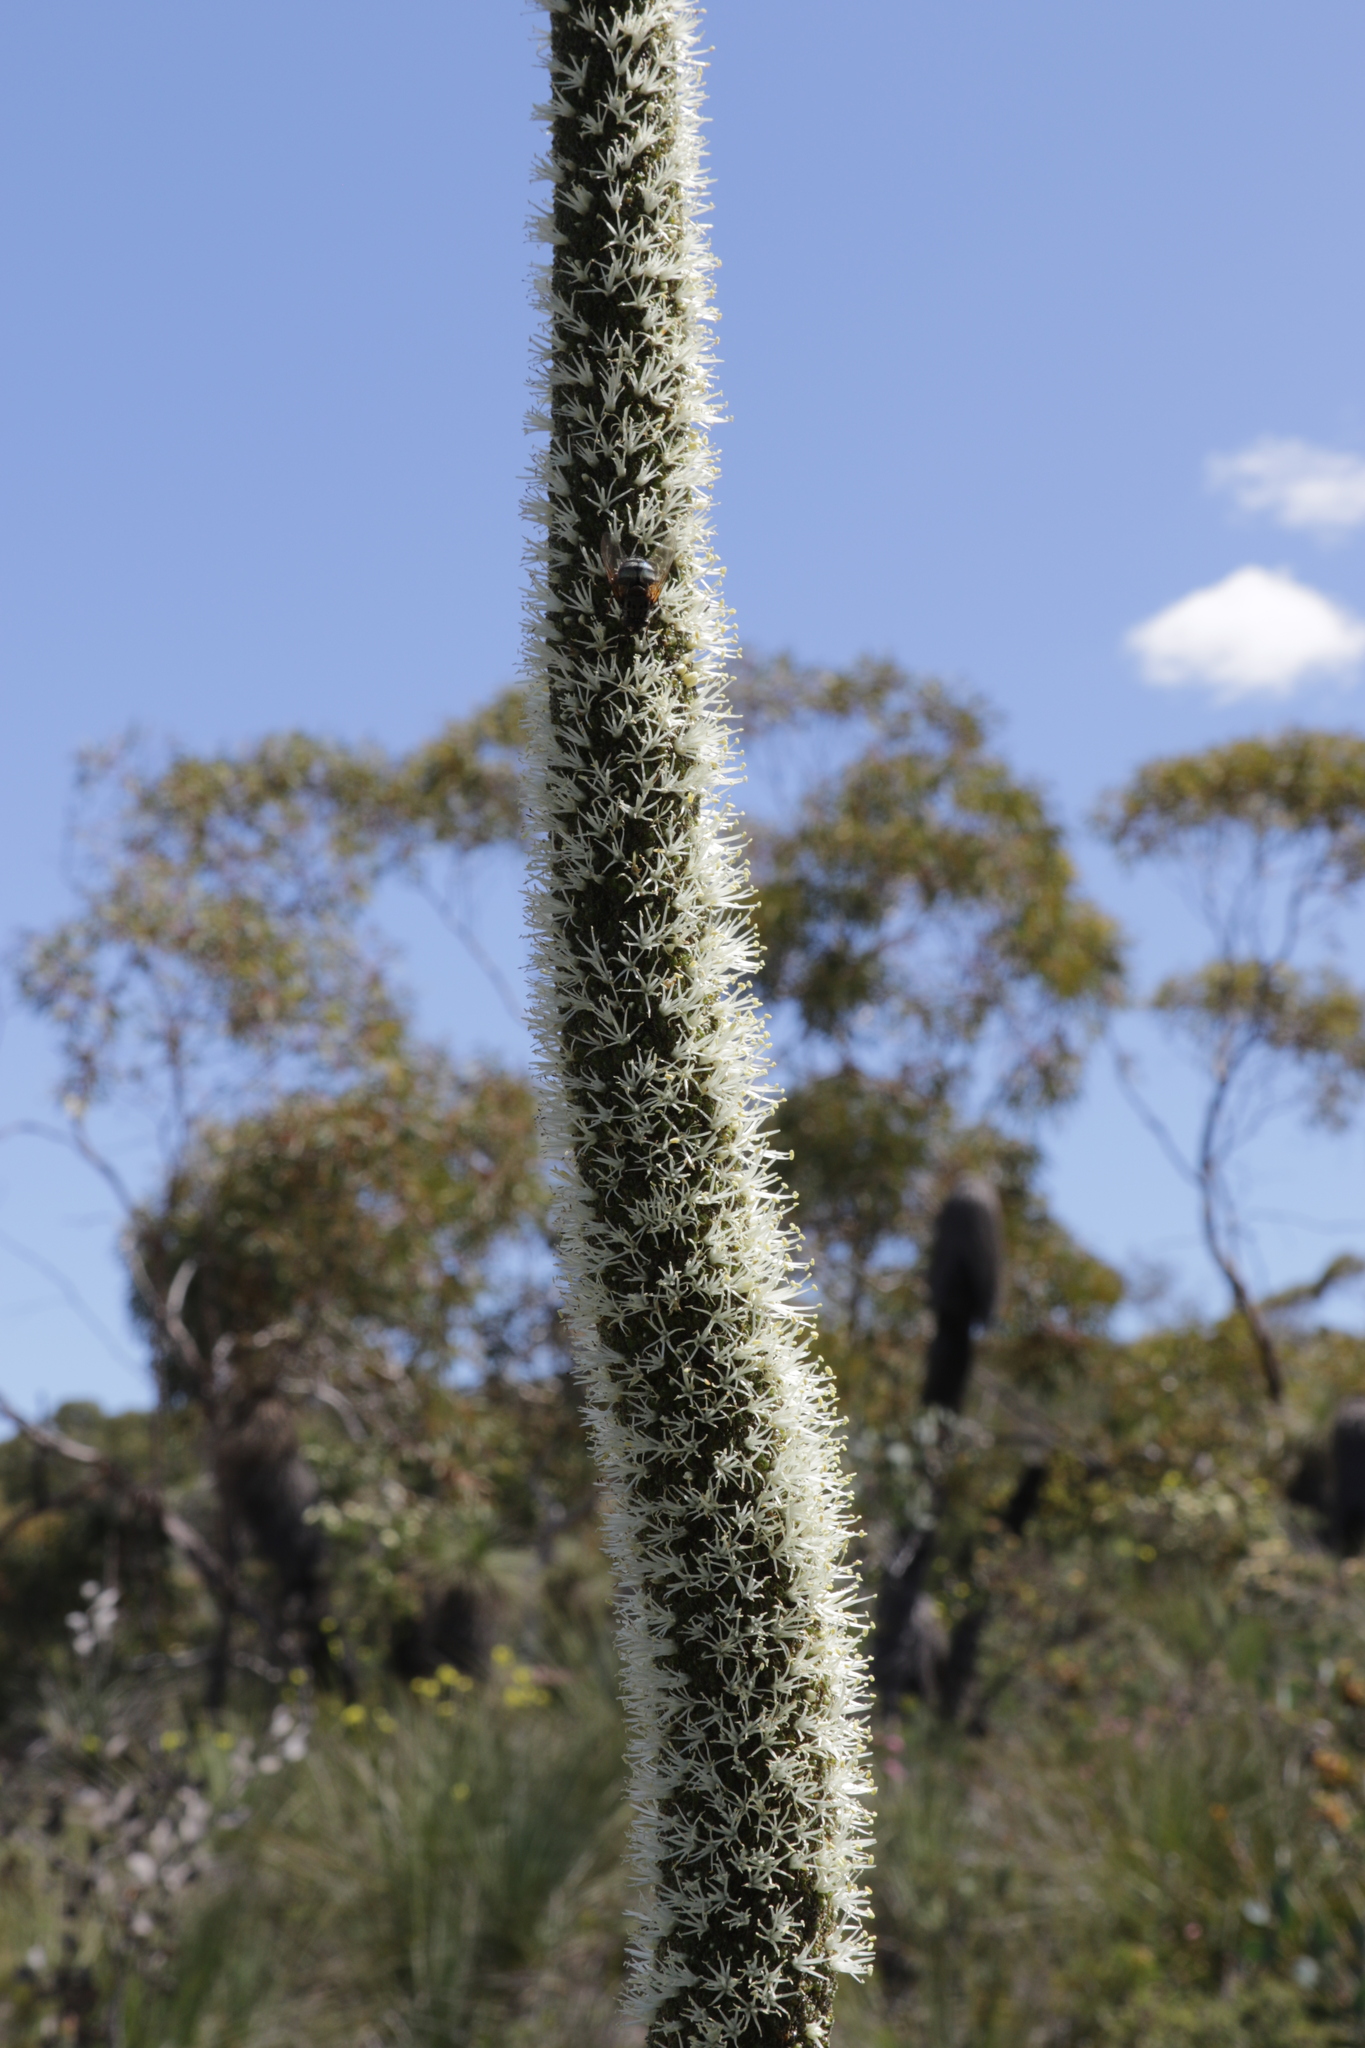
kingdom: Plantae
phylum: Tracheophyta
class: Liliopsida
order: Asparagales
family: Asphodelaceae
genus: Xanthorrhoea
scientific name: Xanthorrhoea drummondii
